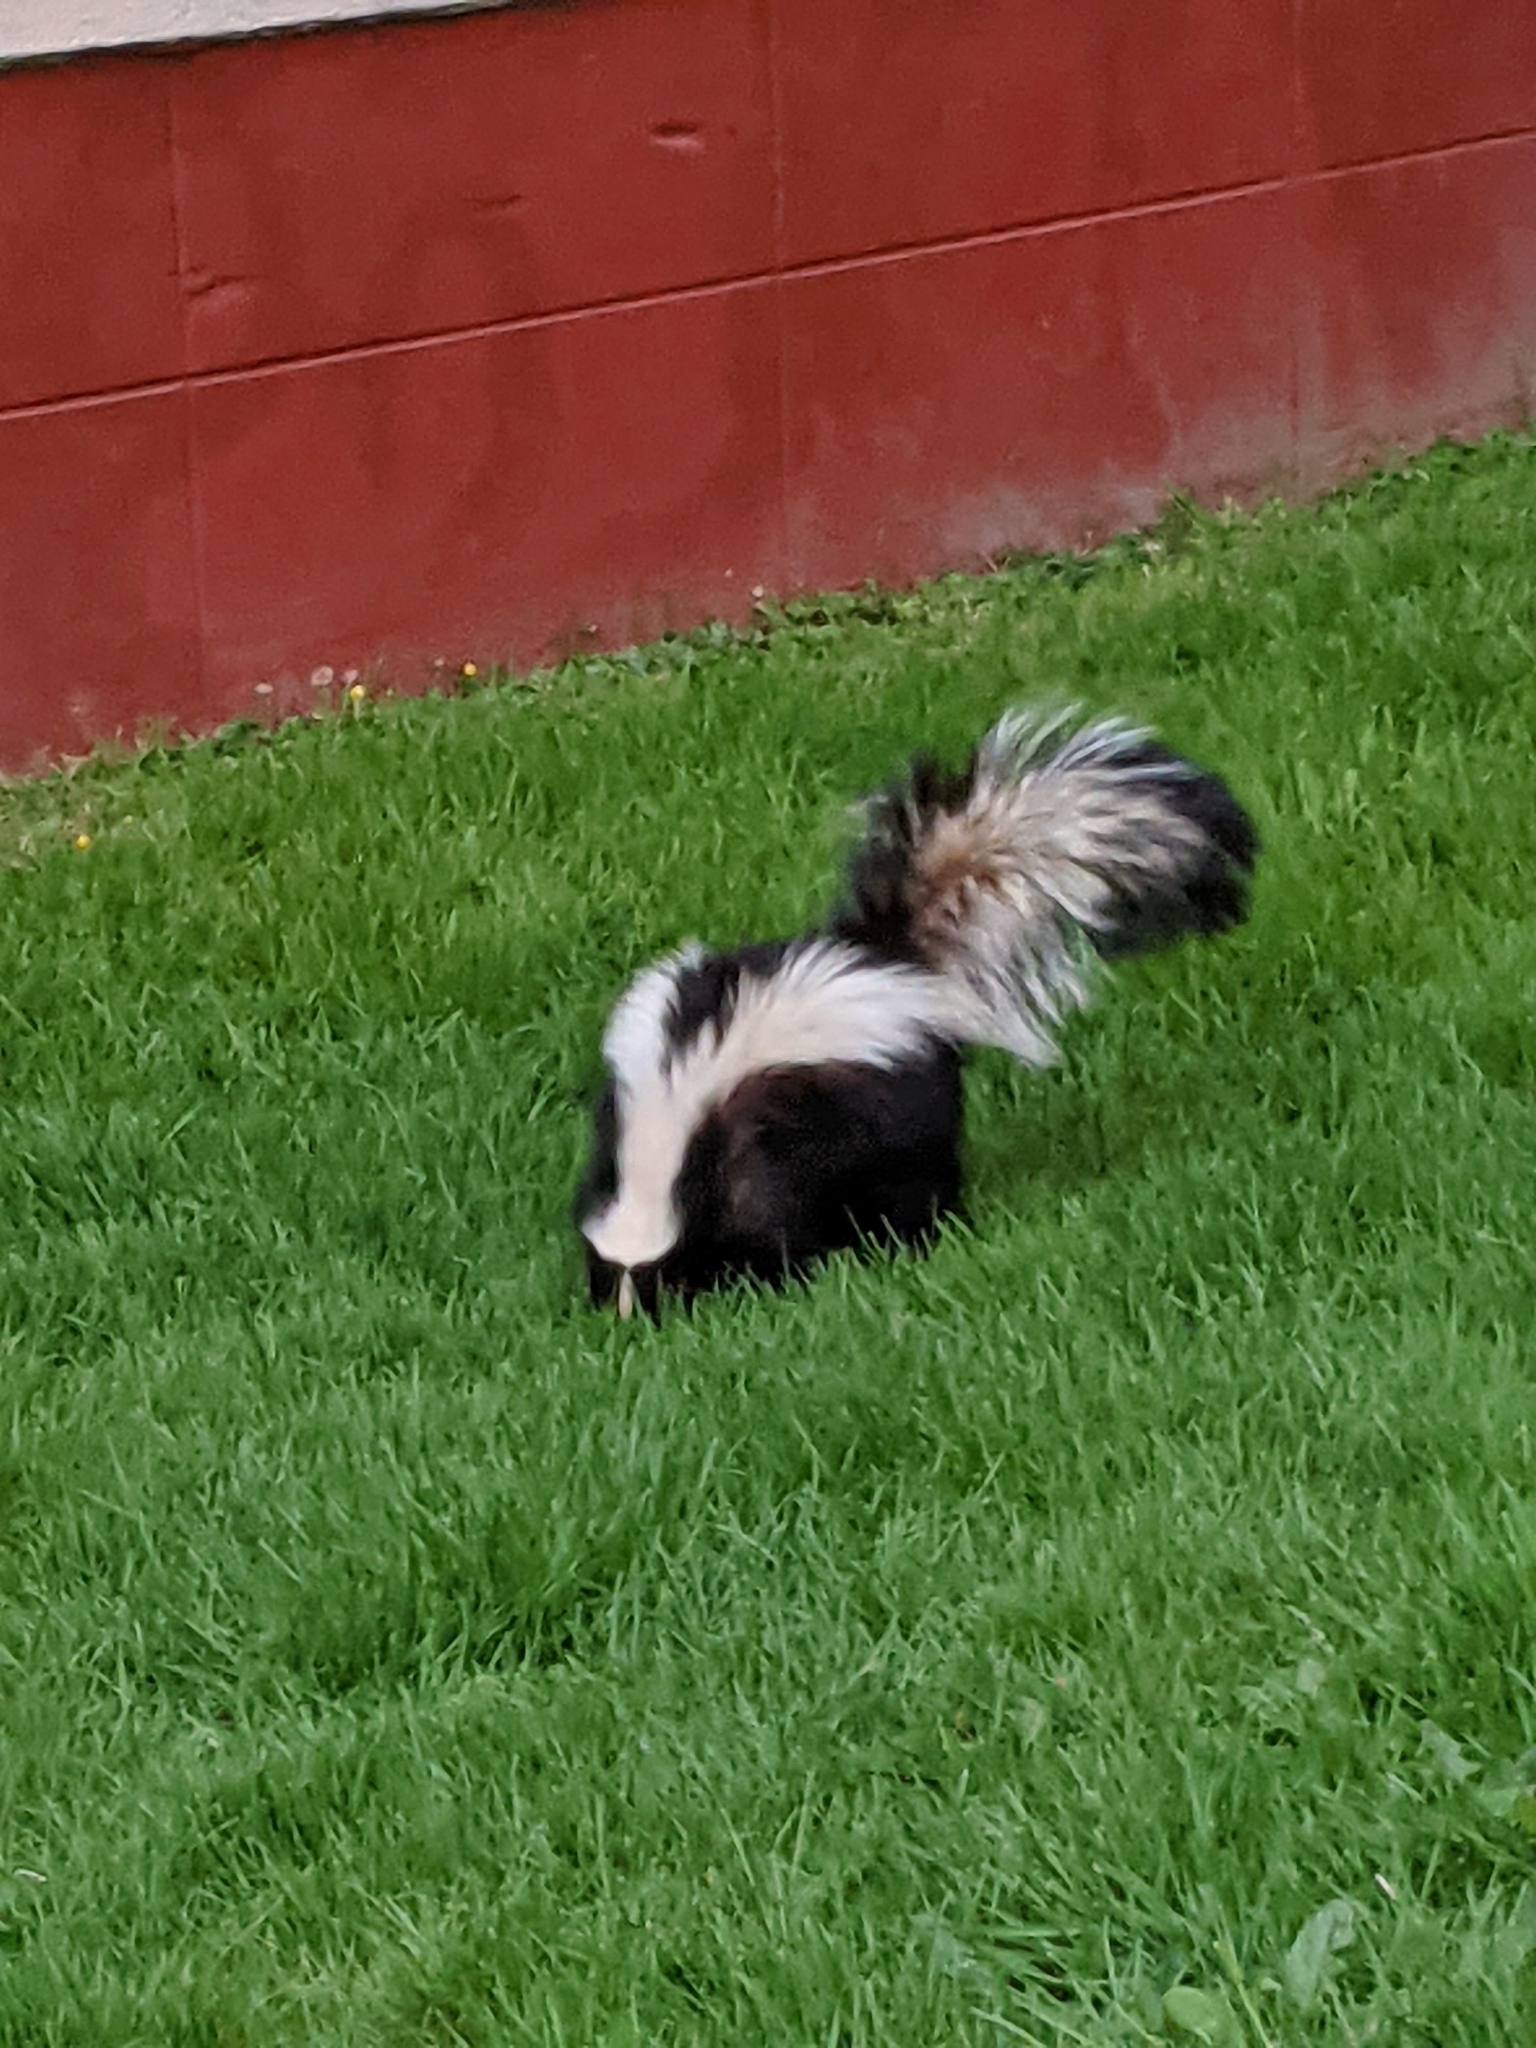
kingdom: Animalia
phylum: Chordata
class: Mammalia
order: Carnivora
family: Mephitidae
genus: Mephitis
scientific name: Mephitis mephitis
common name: Striped skunk
